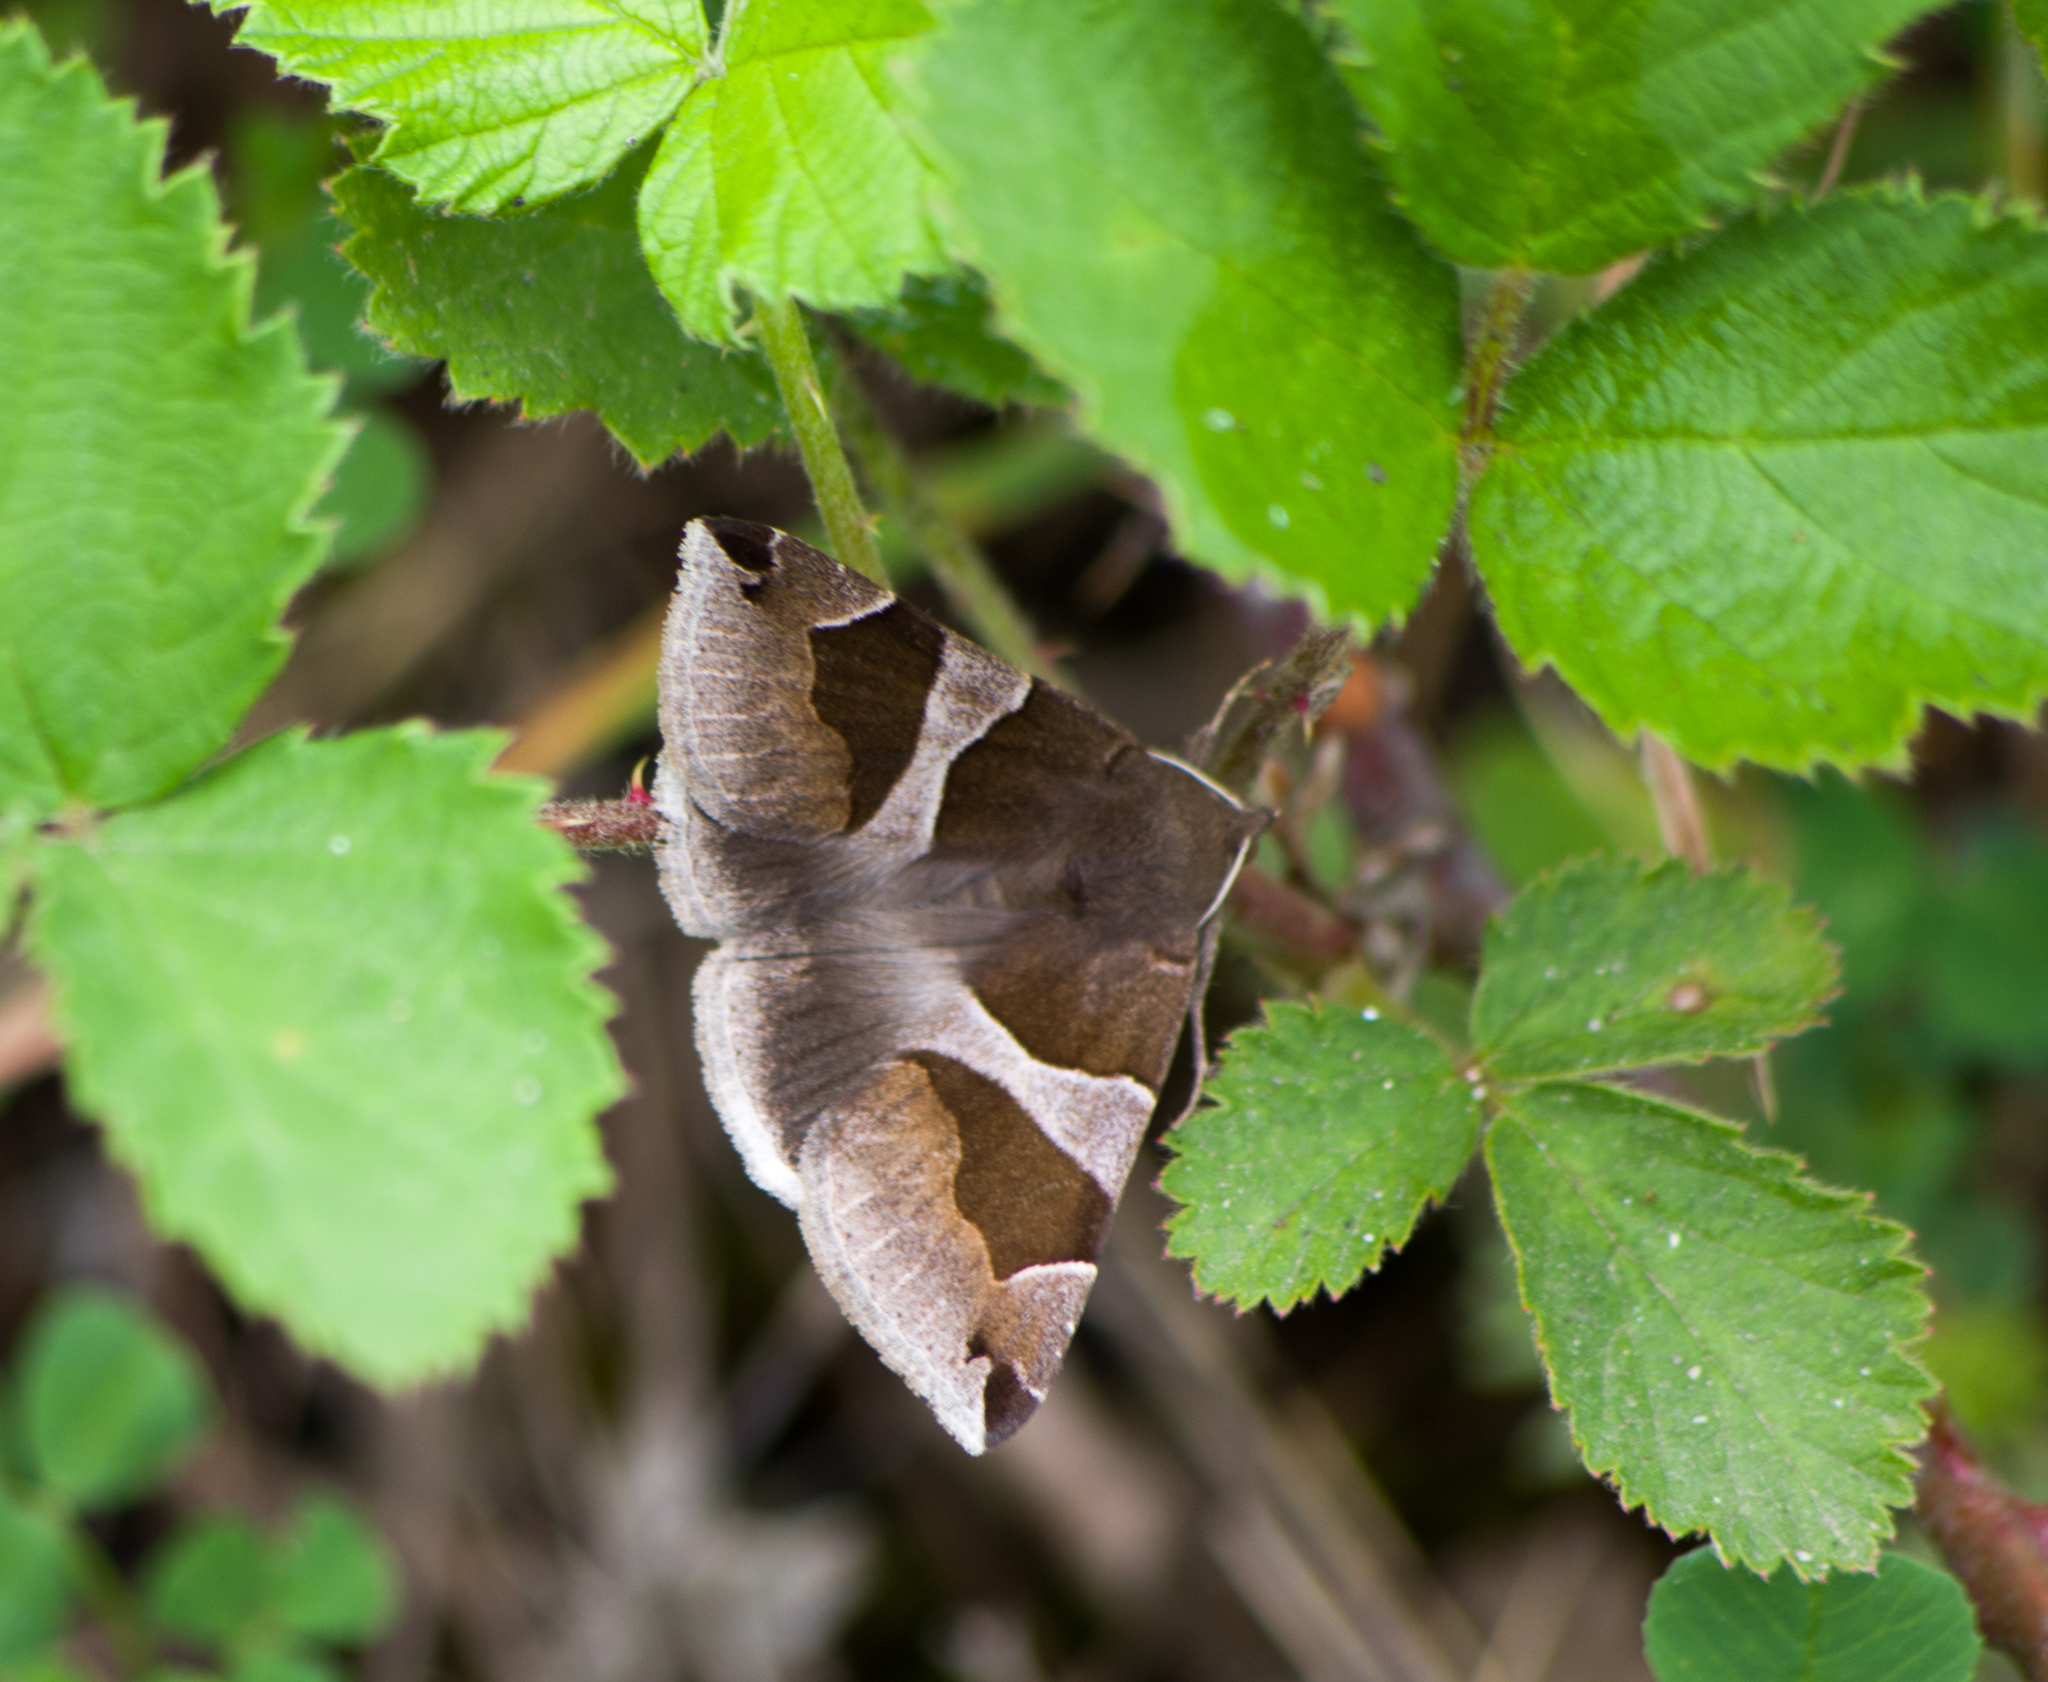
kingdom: Animalia
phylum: Arthropoda
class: Insecta
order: Lepidoptera
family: Erebidae
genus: Dysgonia
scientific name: Dysgonia algira
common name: Passenger
